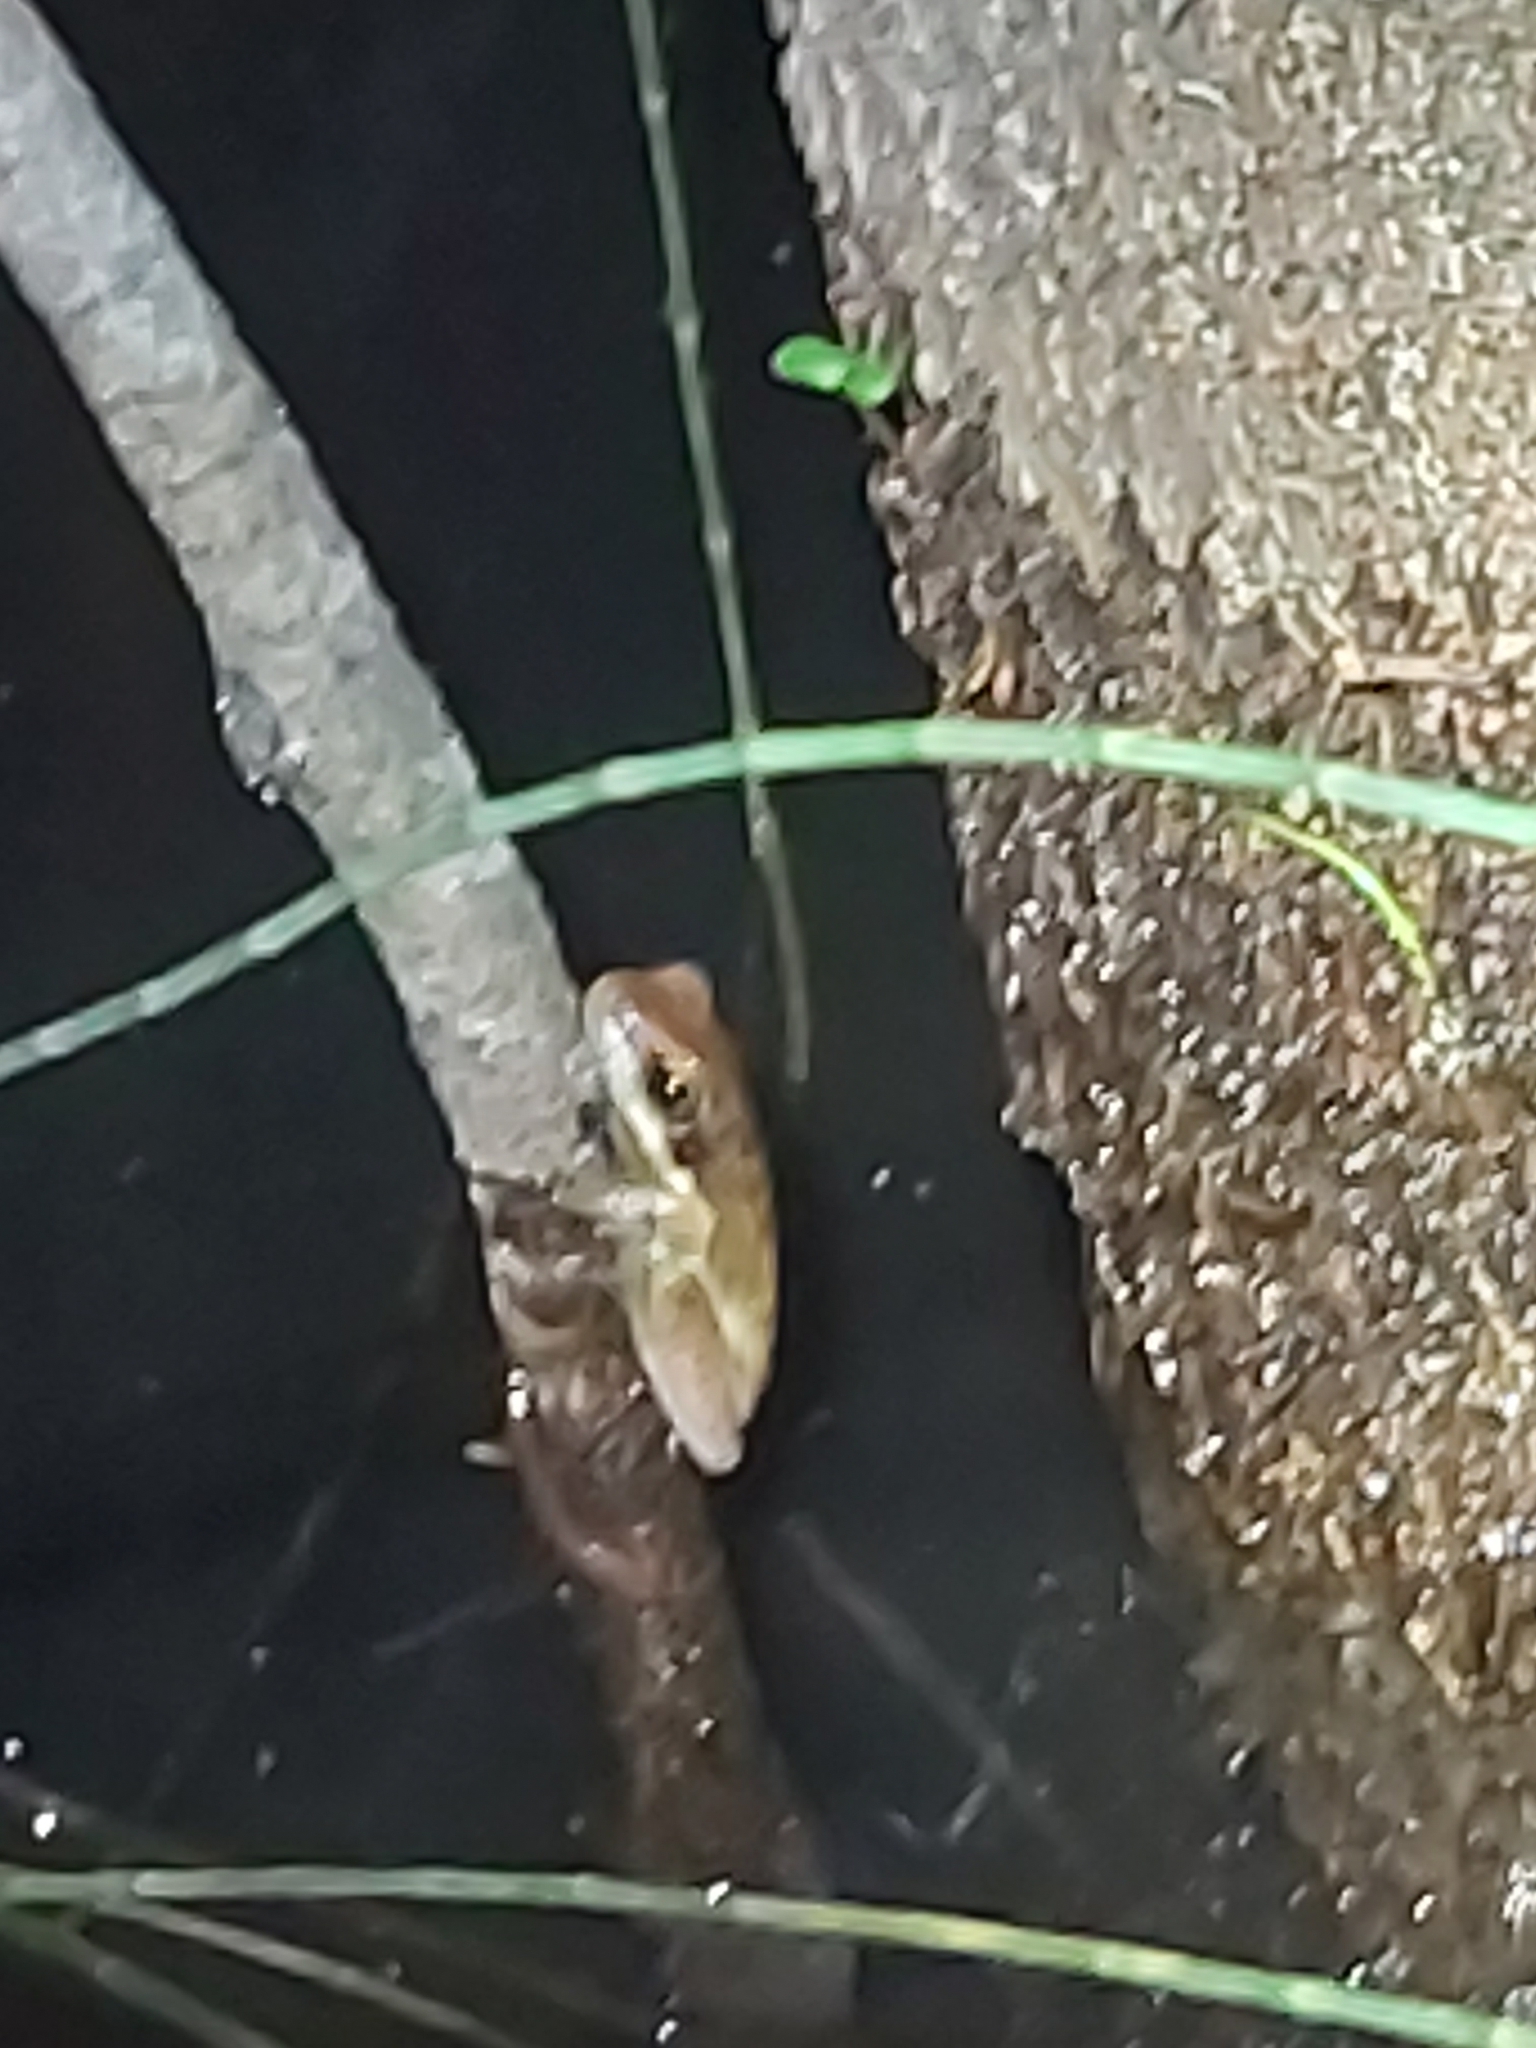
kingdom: Animalia
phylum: Chordata
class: Amphibia
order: Anura
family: Pelodryadidae
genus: Litoria
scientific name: Litoria fallax
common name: Eastern dwarf treefrog
